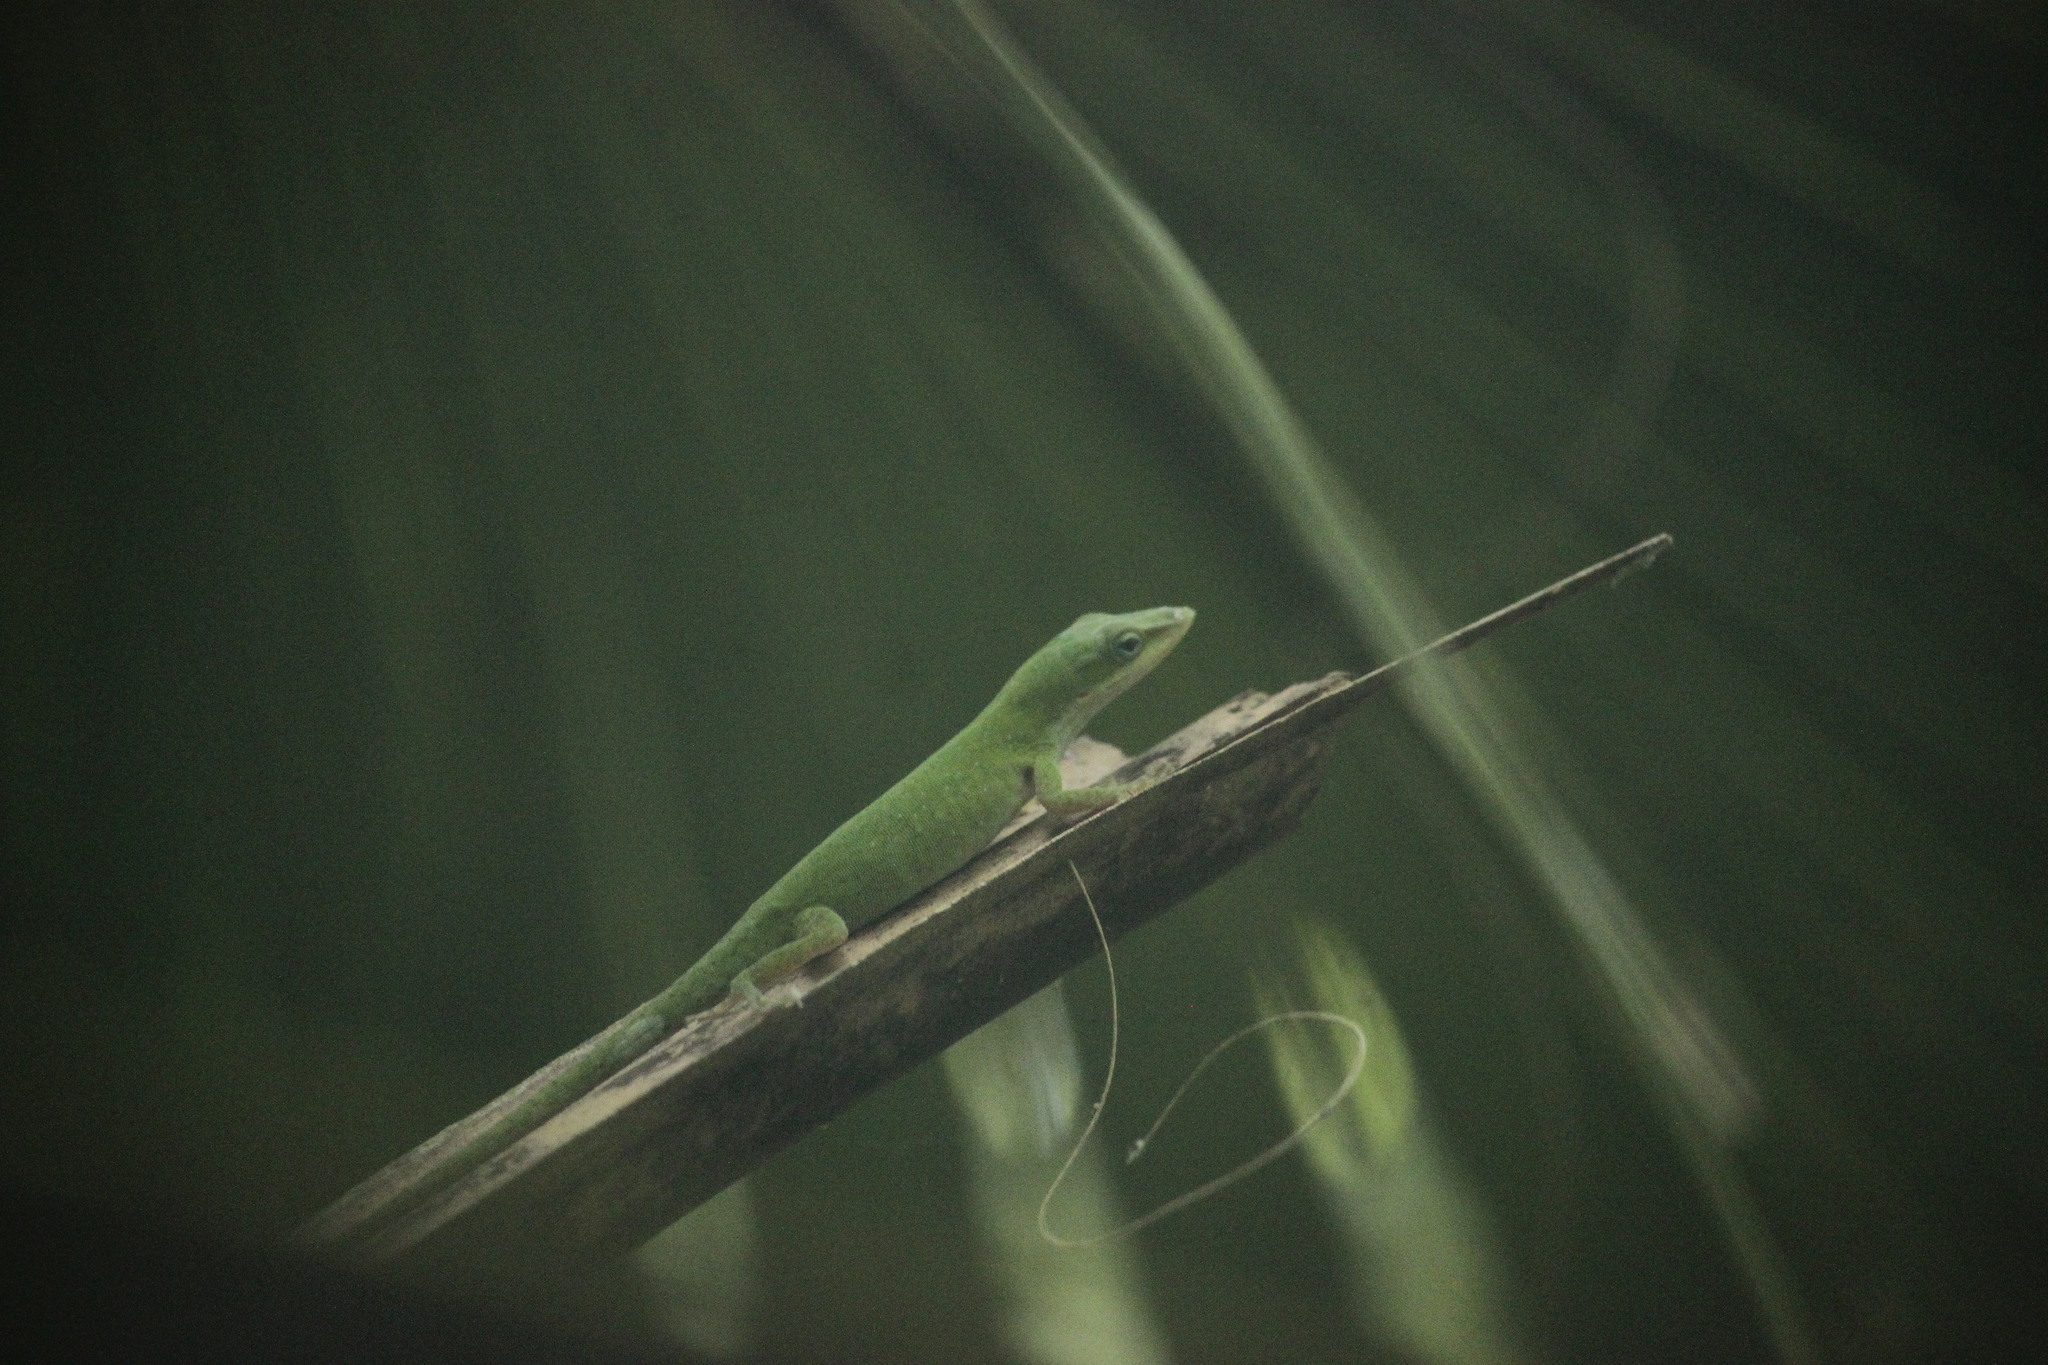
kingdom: Animalia
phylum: Chordata
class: Squamata
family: Dactyloidae
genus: Anolis
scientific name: Anolis carolinensis
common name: Green anole
